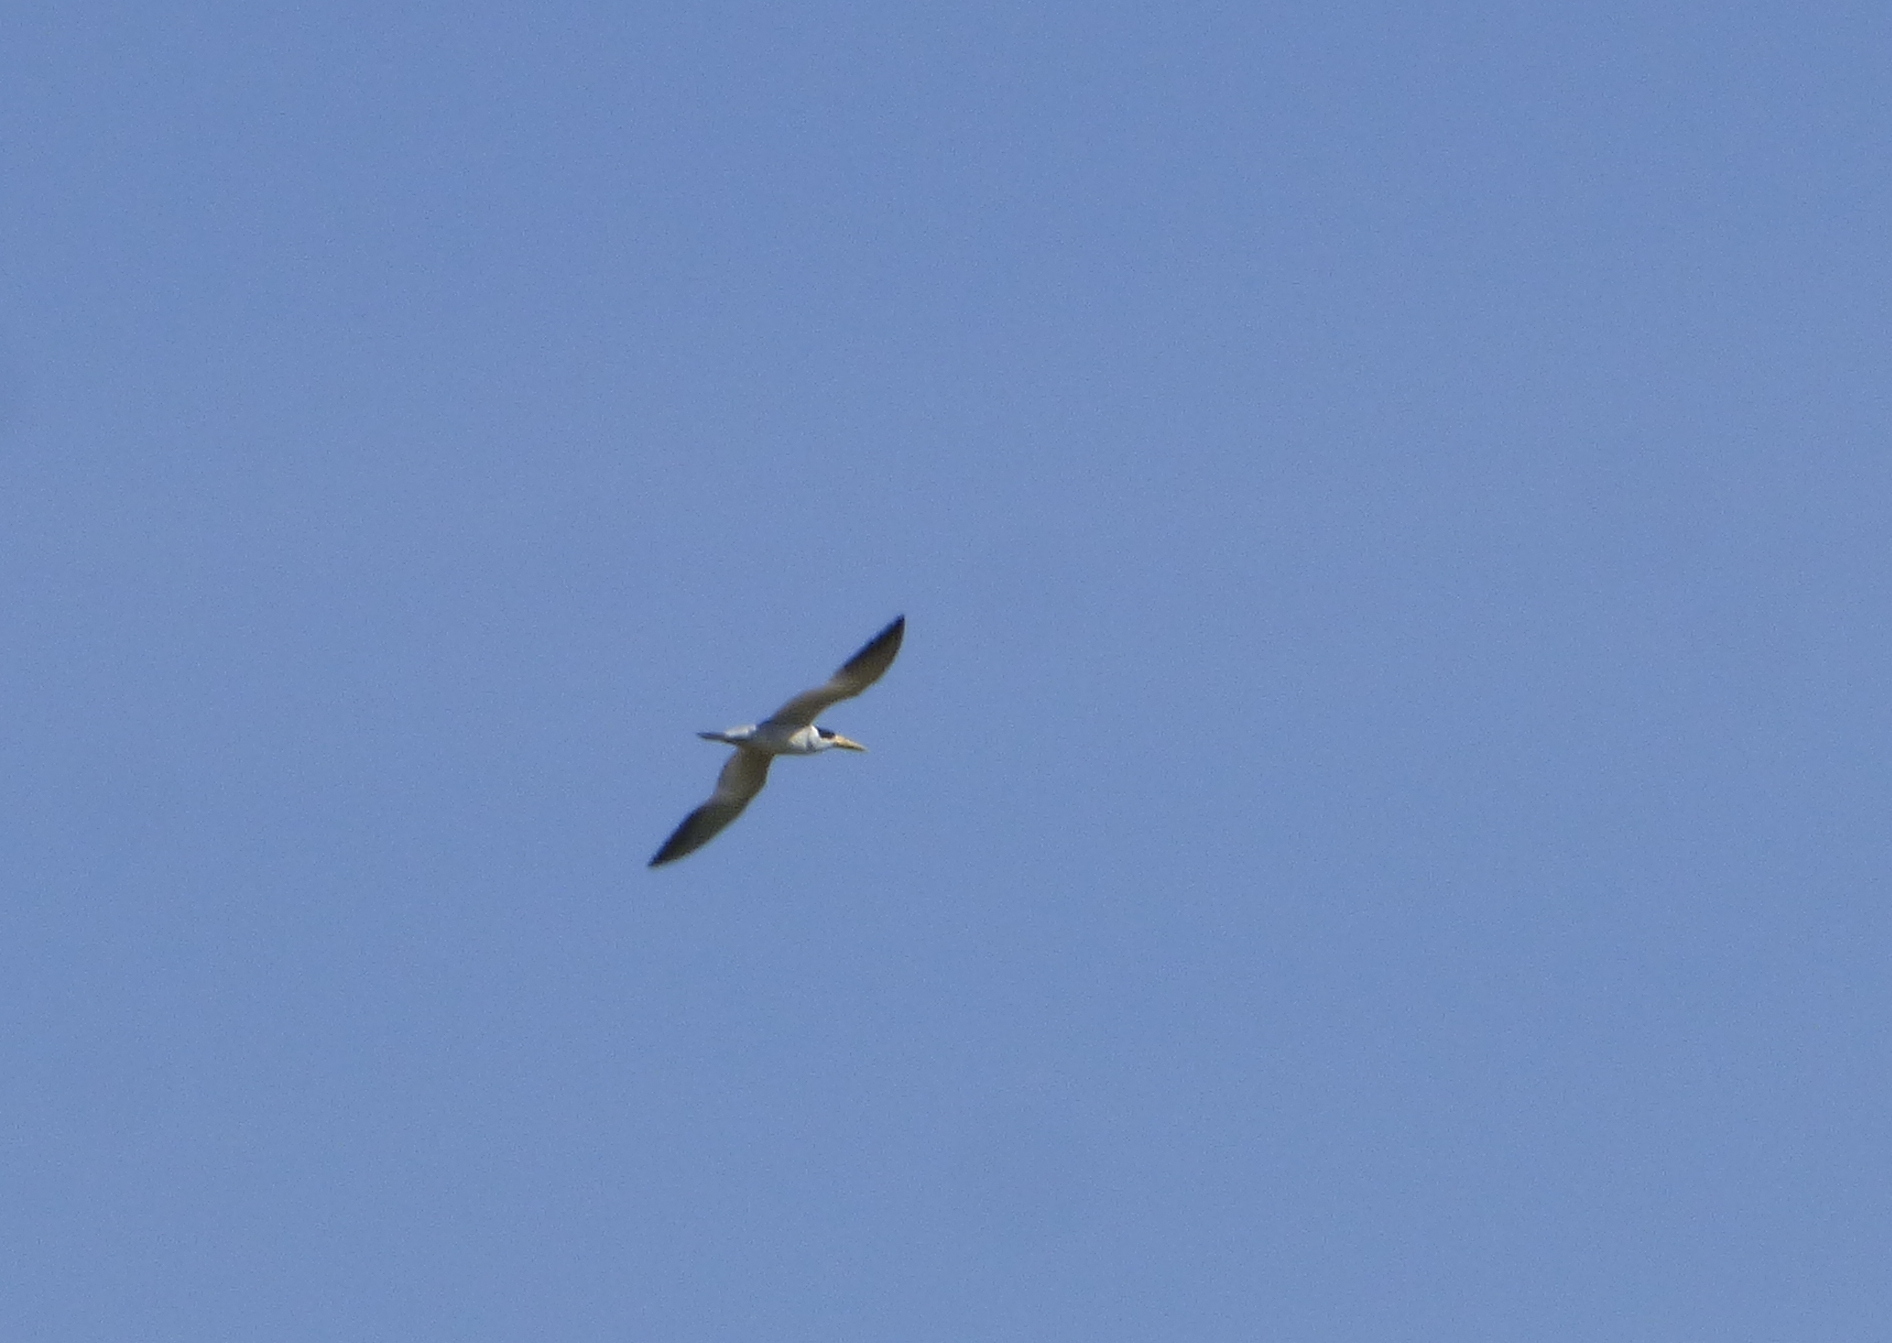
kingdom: Animalia
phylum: Chordata
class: Aves
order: Charadriiformes
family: Laridae
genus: Phaetusa
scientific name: Phaetusa simplex
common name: Large-billed tern
